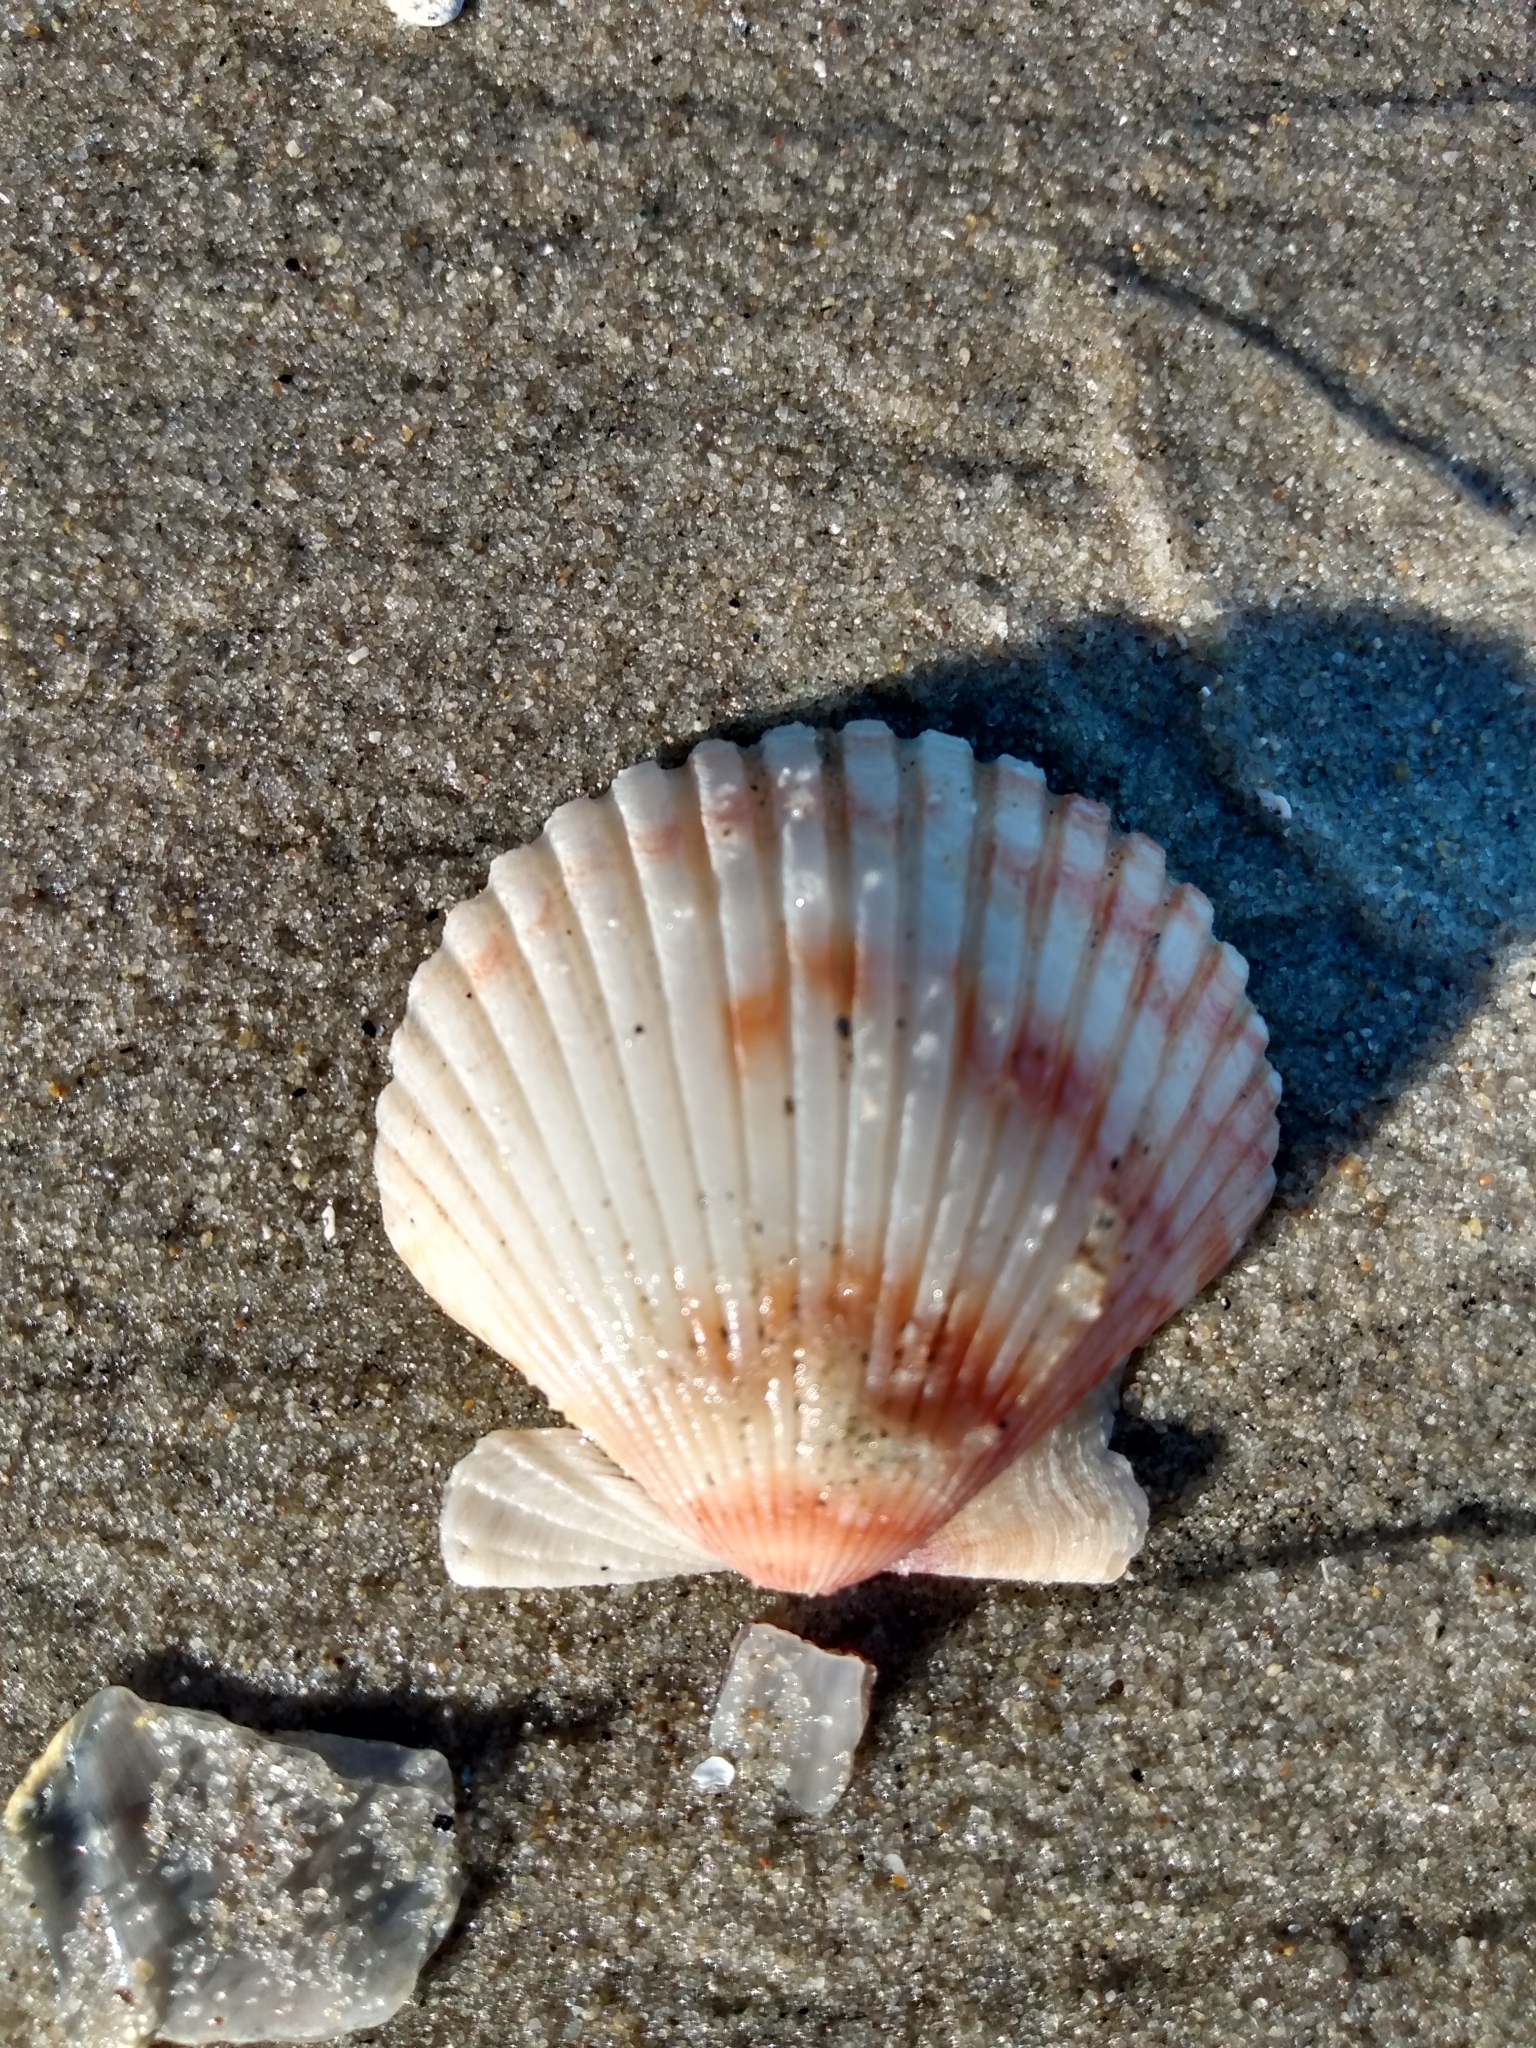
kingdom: Animalia
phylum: Mollusca
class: Bivalvia
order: Pectinida
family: Pectinidae
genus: Argopecten
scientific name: Argopecten ventricosus
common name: Catarina scallop
